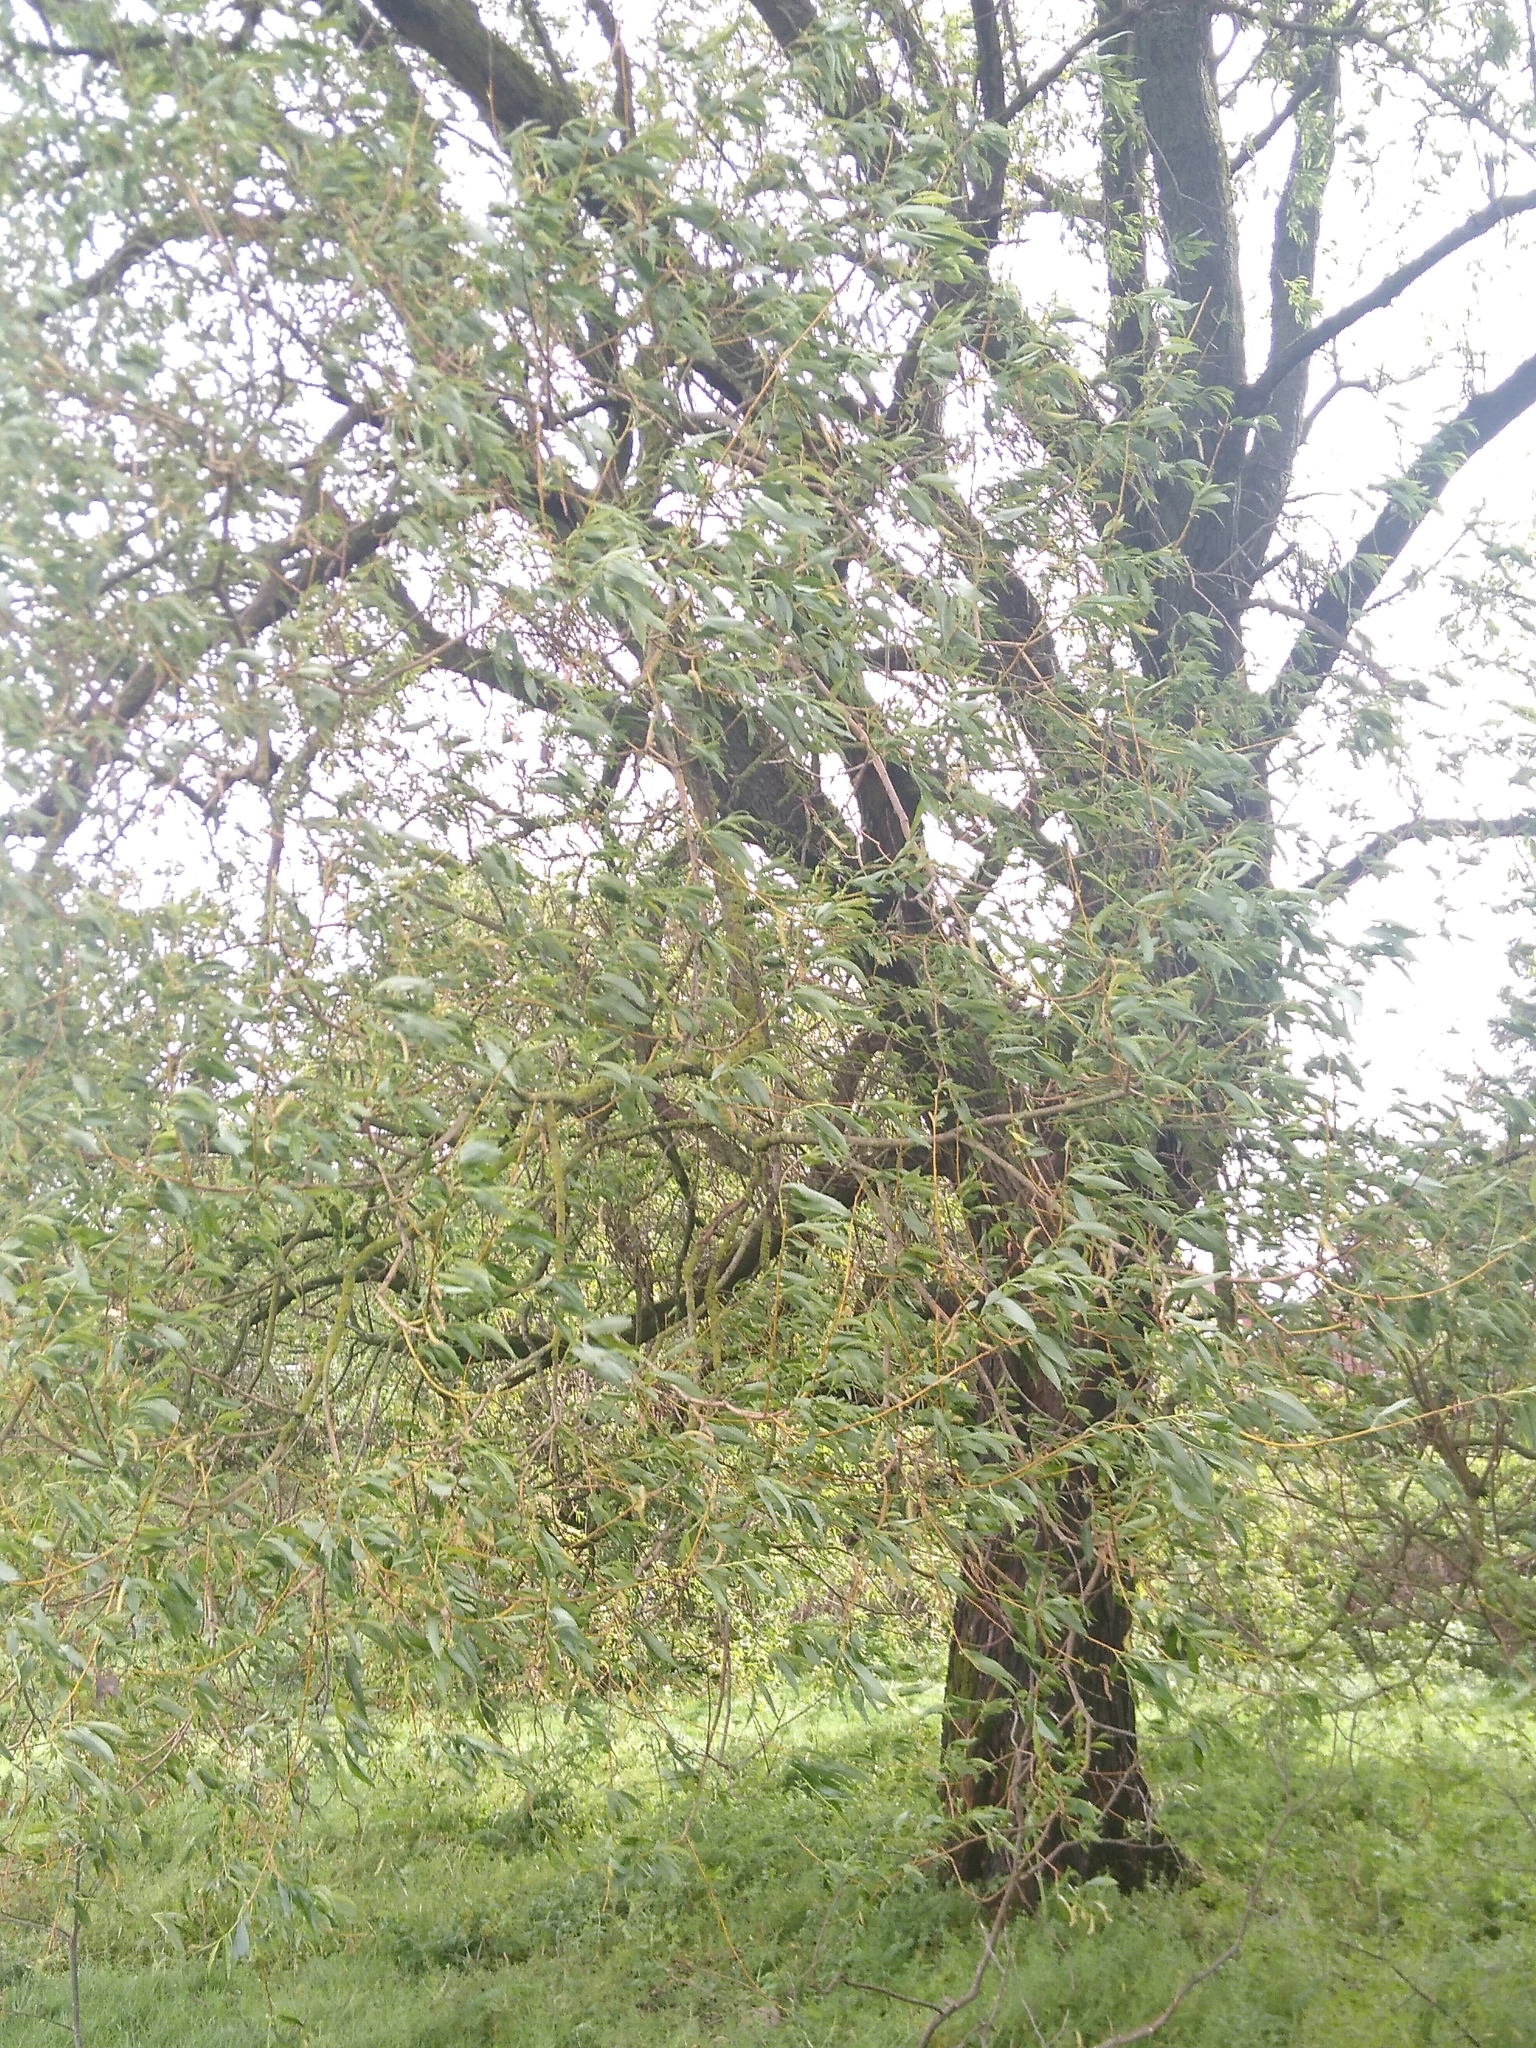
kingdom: Plantae
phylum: Tracheophyta
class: Magnoliopsida
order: Malpighiales
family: Salicaceae
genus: Salix
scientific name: Salix fragilis
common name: Crack willow
